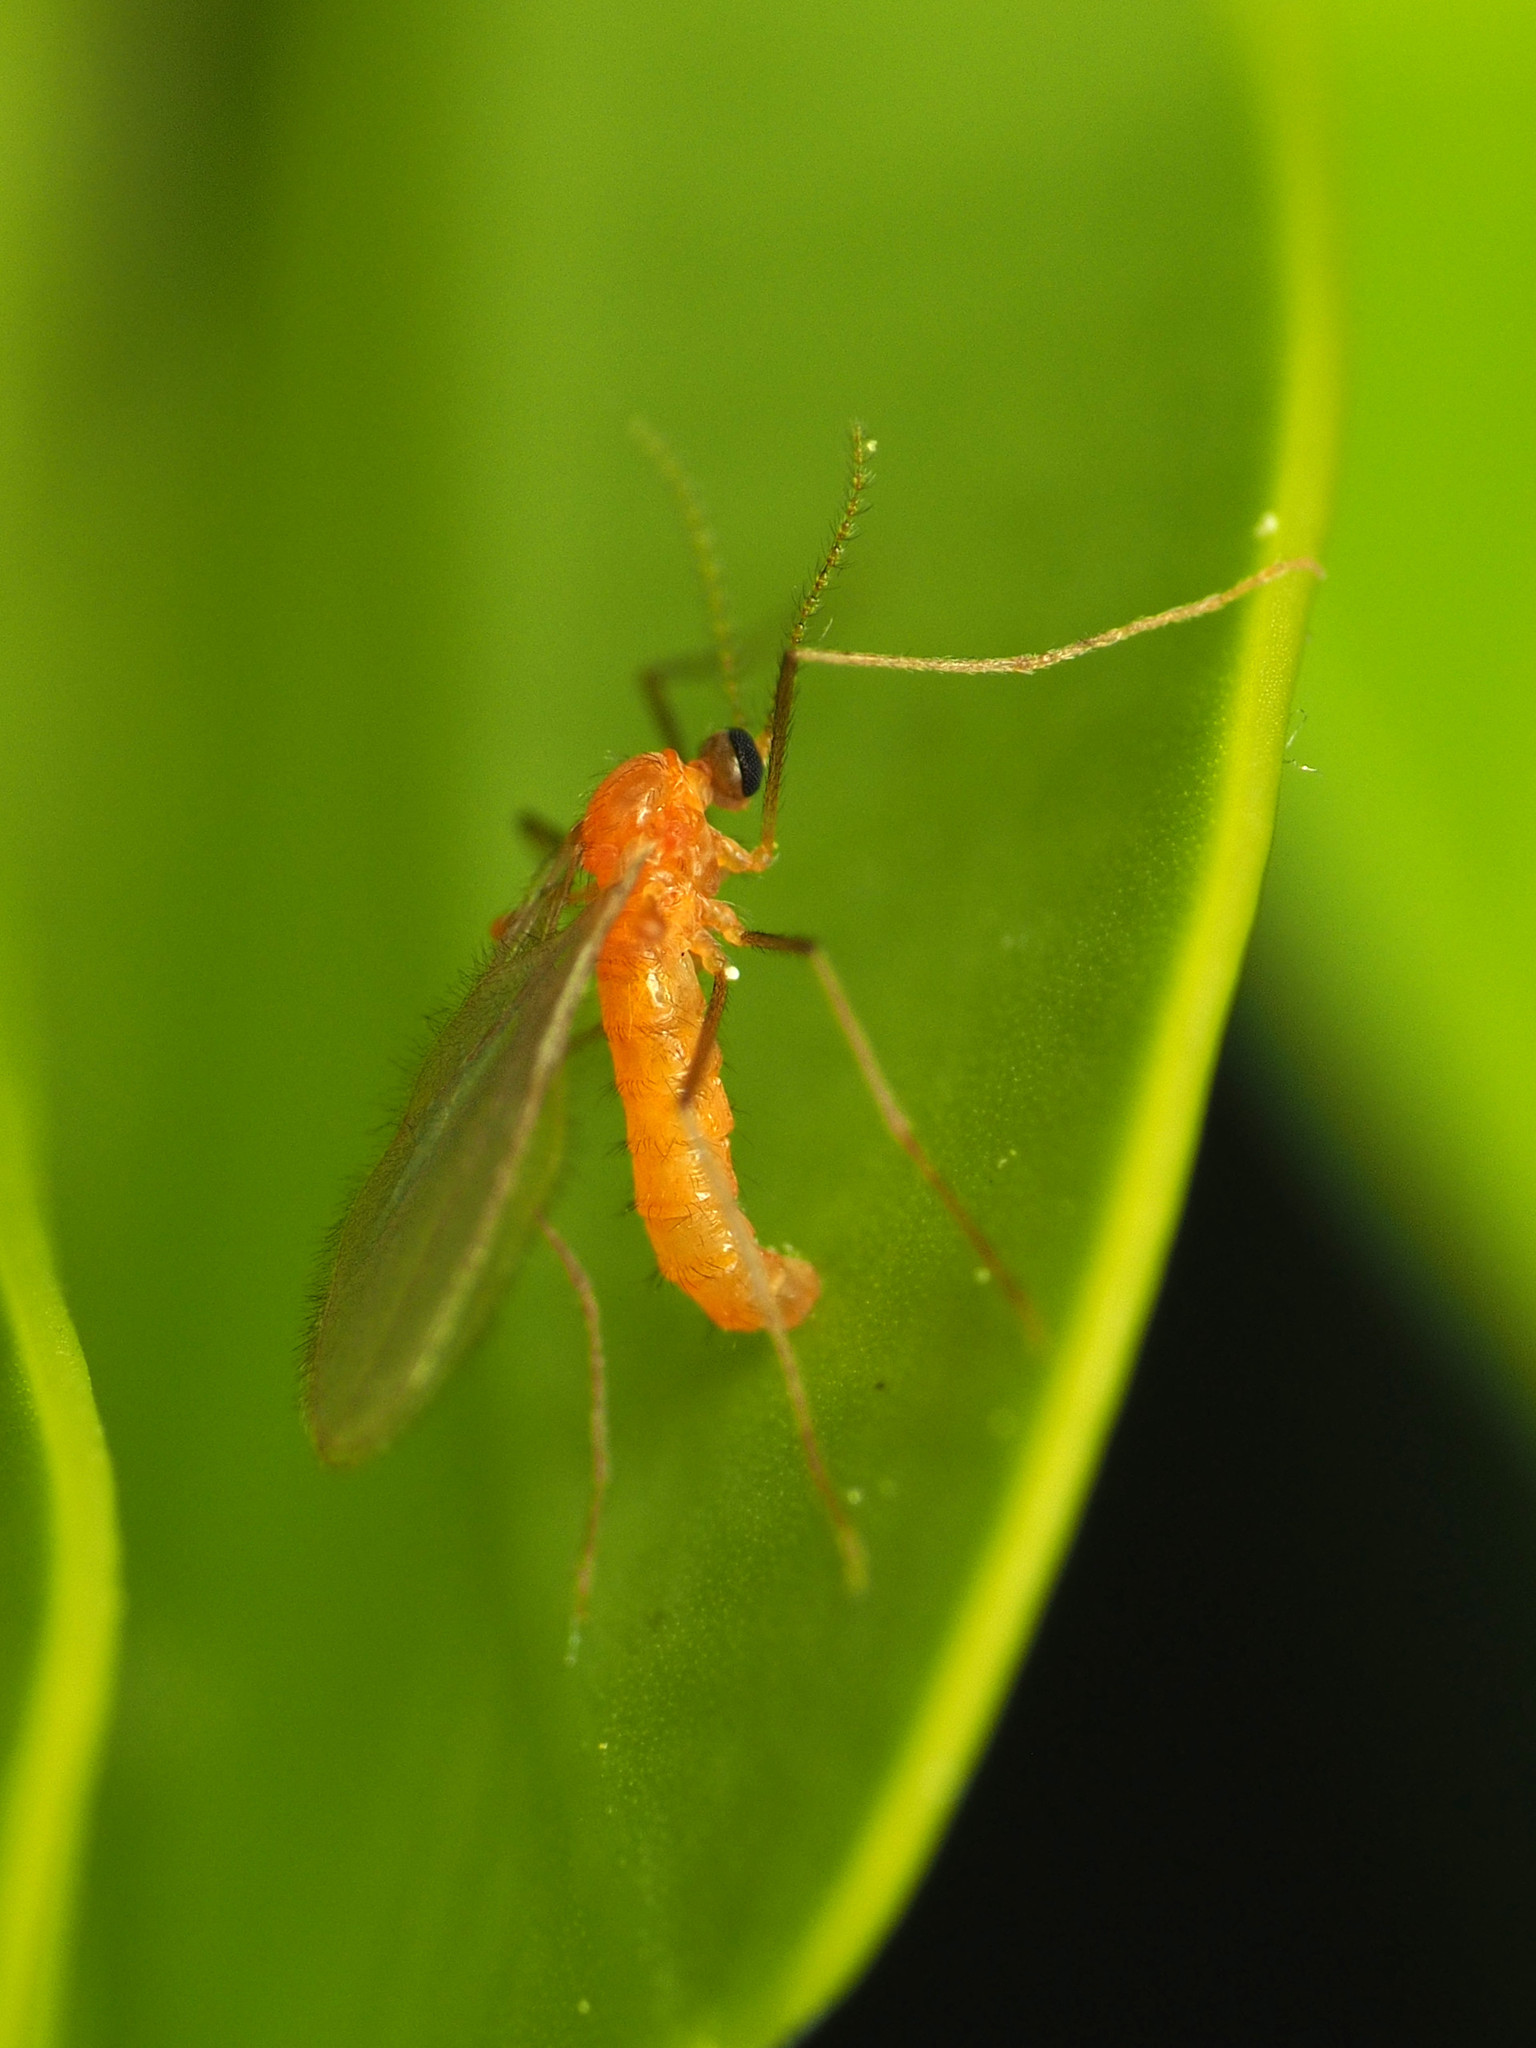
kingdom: Animalia
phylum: Arthropoda
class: Insecta
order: Diptera
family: Cecidomyiidae
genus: Monarthropalpus
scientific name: Monarthropalpus flavus
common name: Boxwood leafminer
